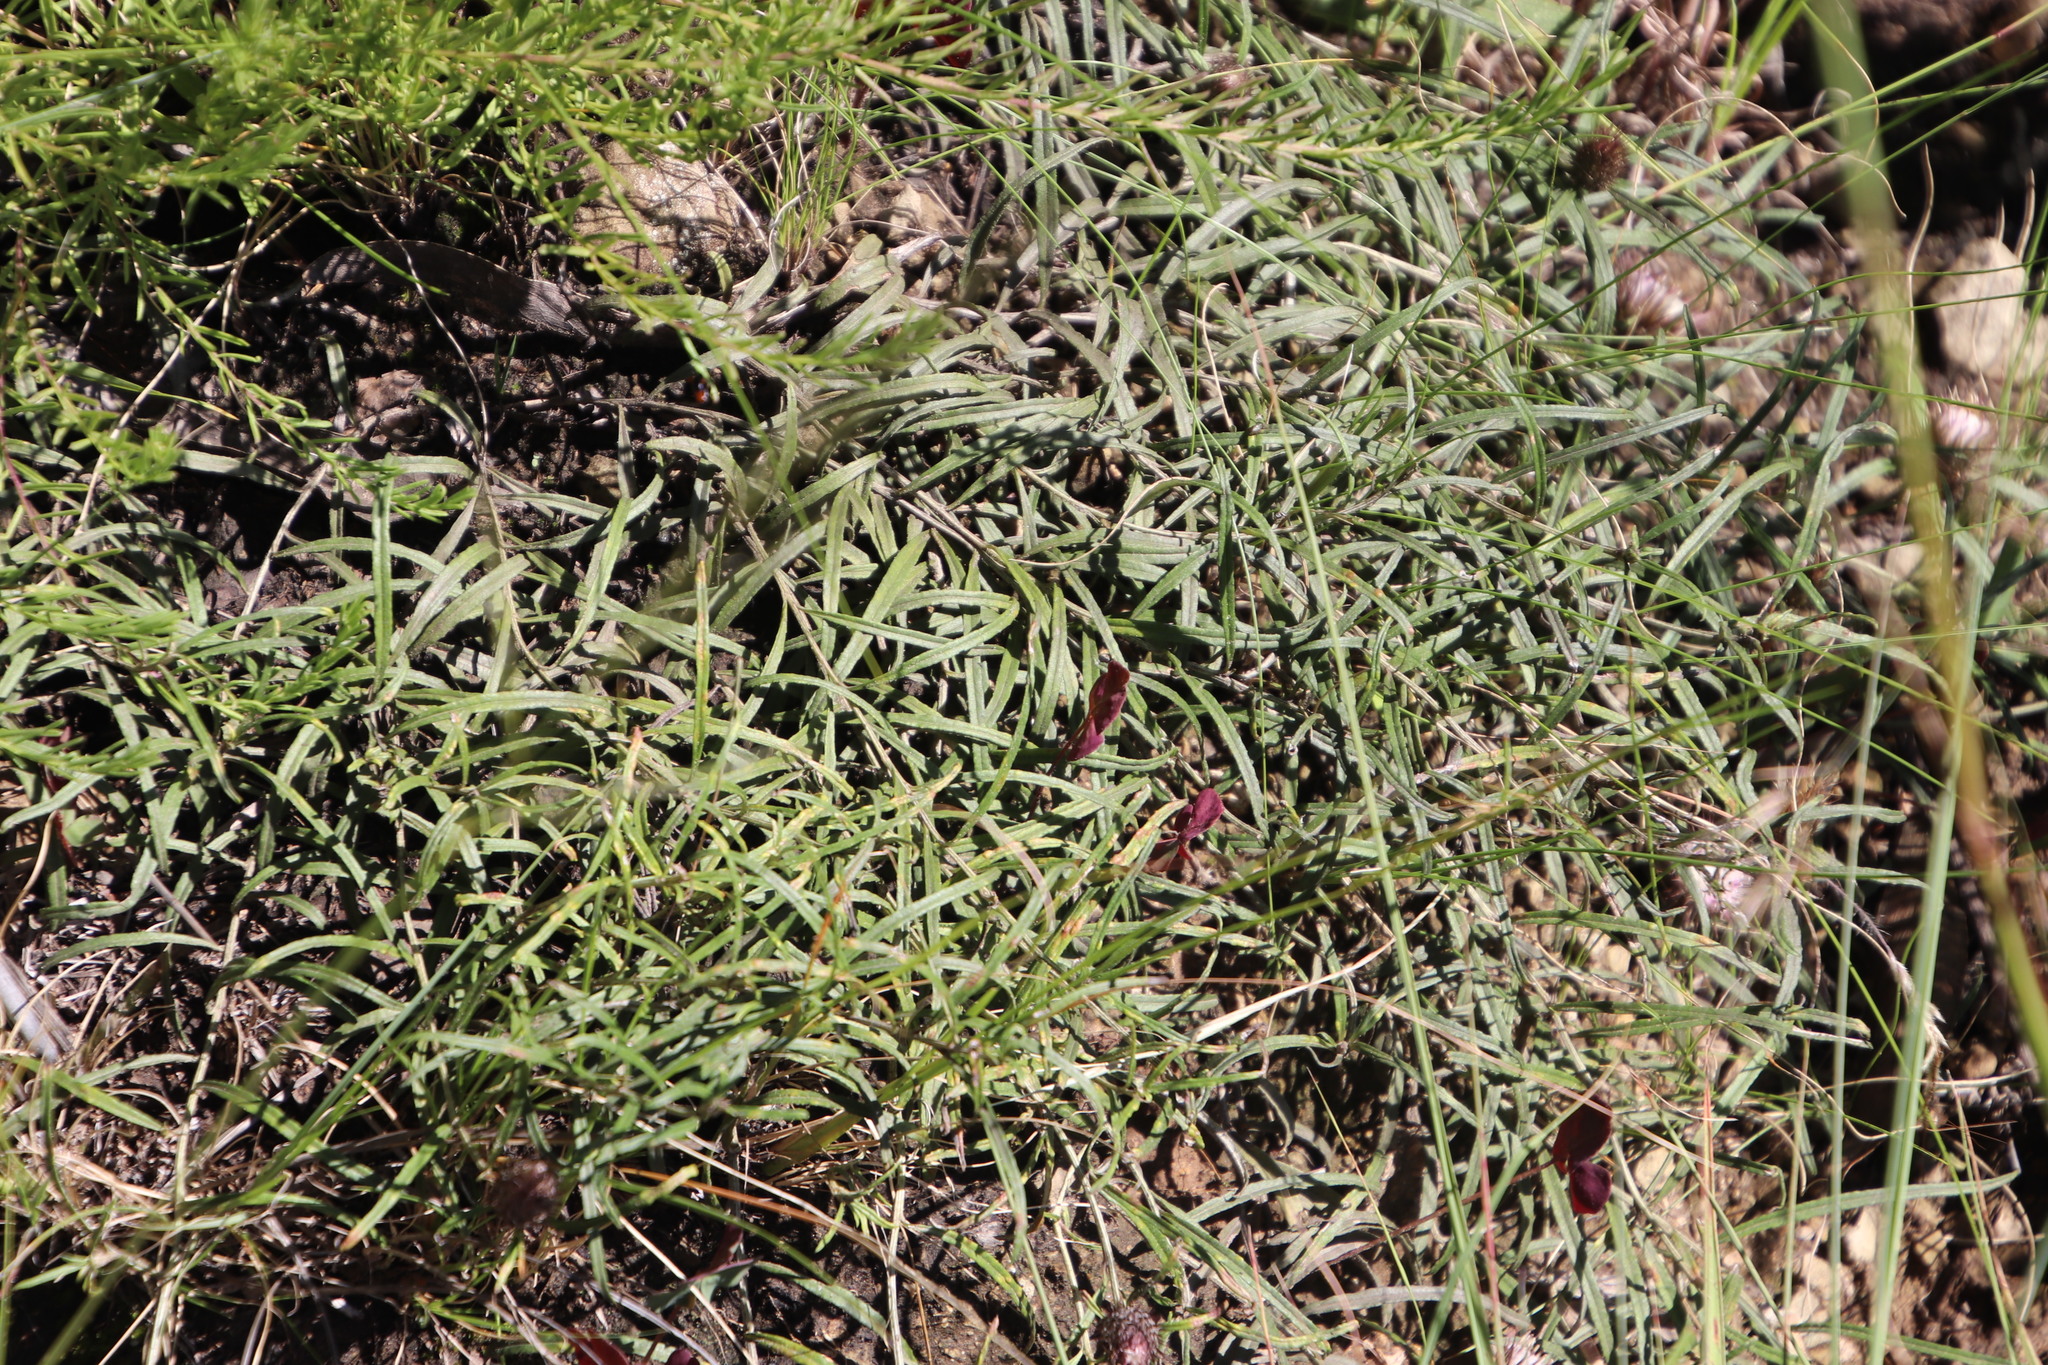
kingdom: Plantae
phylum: Tracheophyta
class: Magnoliopsida
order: Asterales
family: Asteraceae
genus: Dicoma
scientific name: Dicoma anomala
